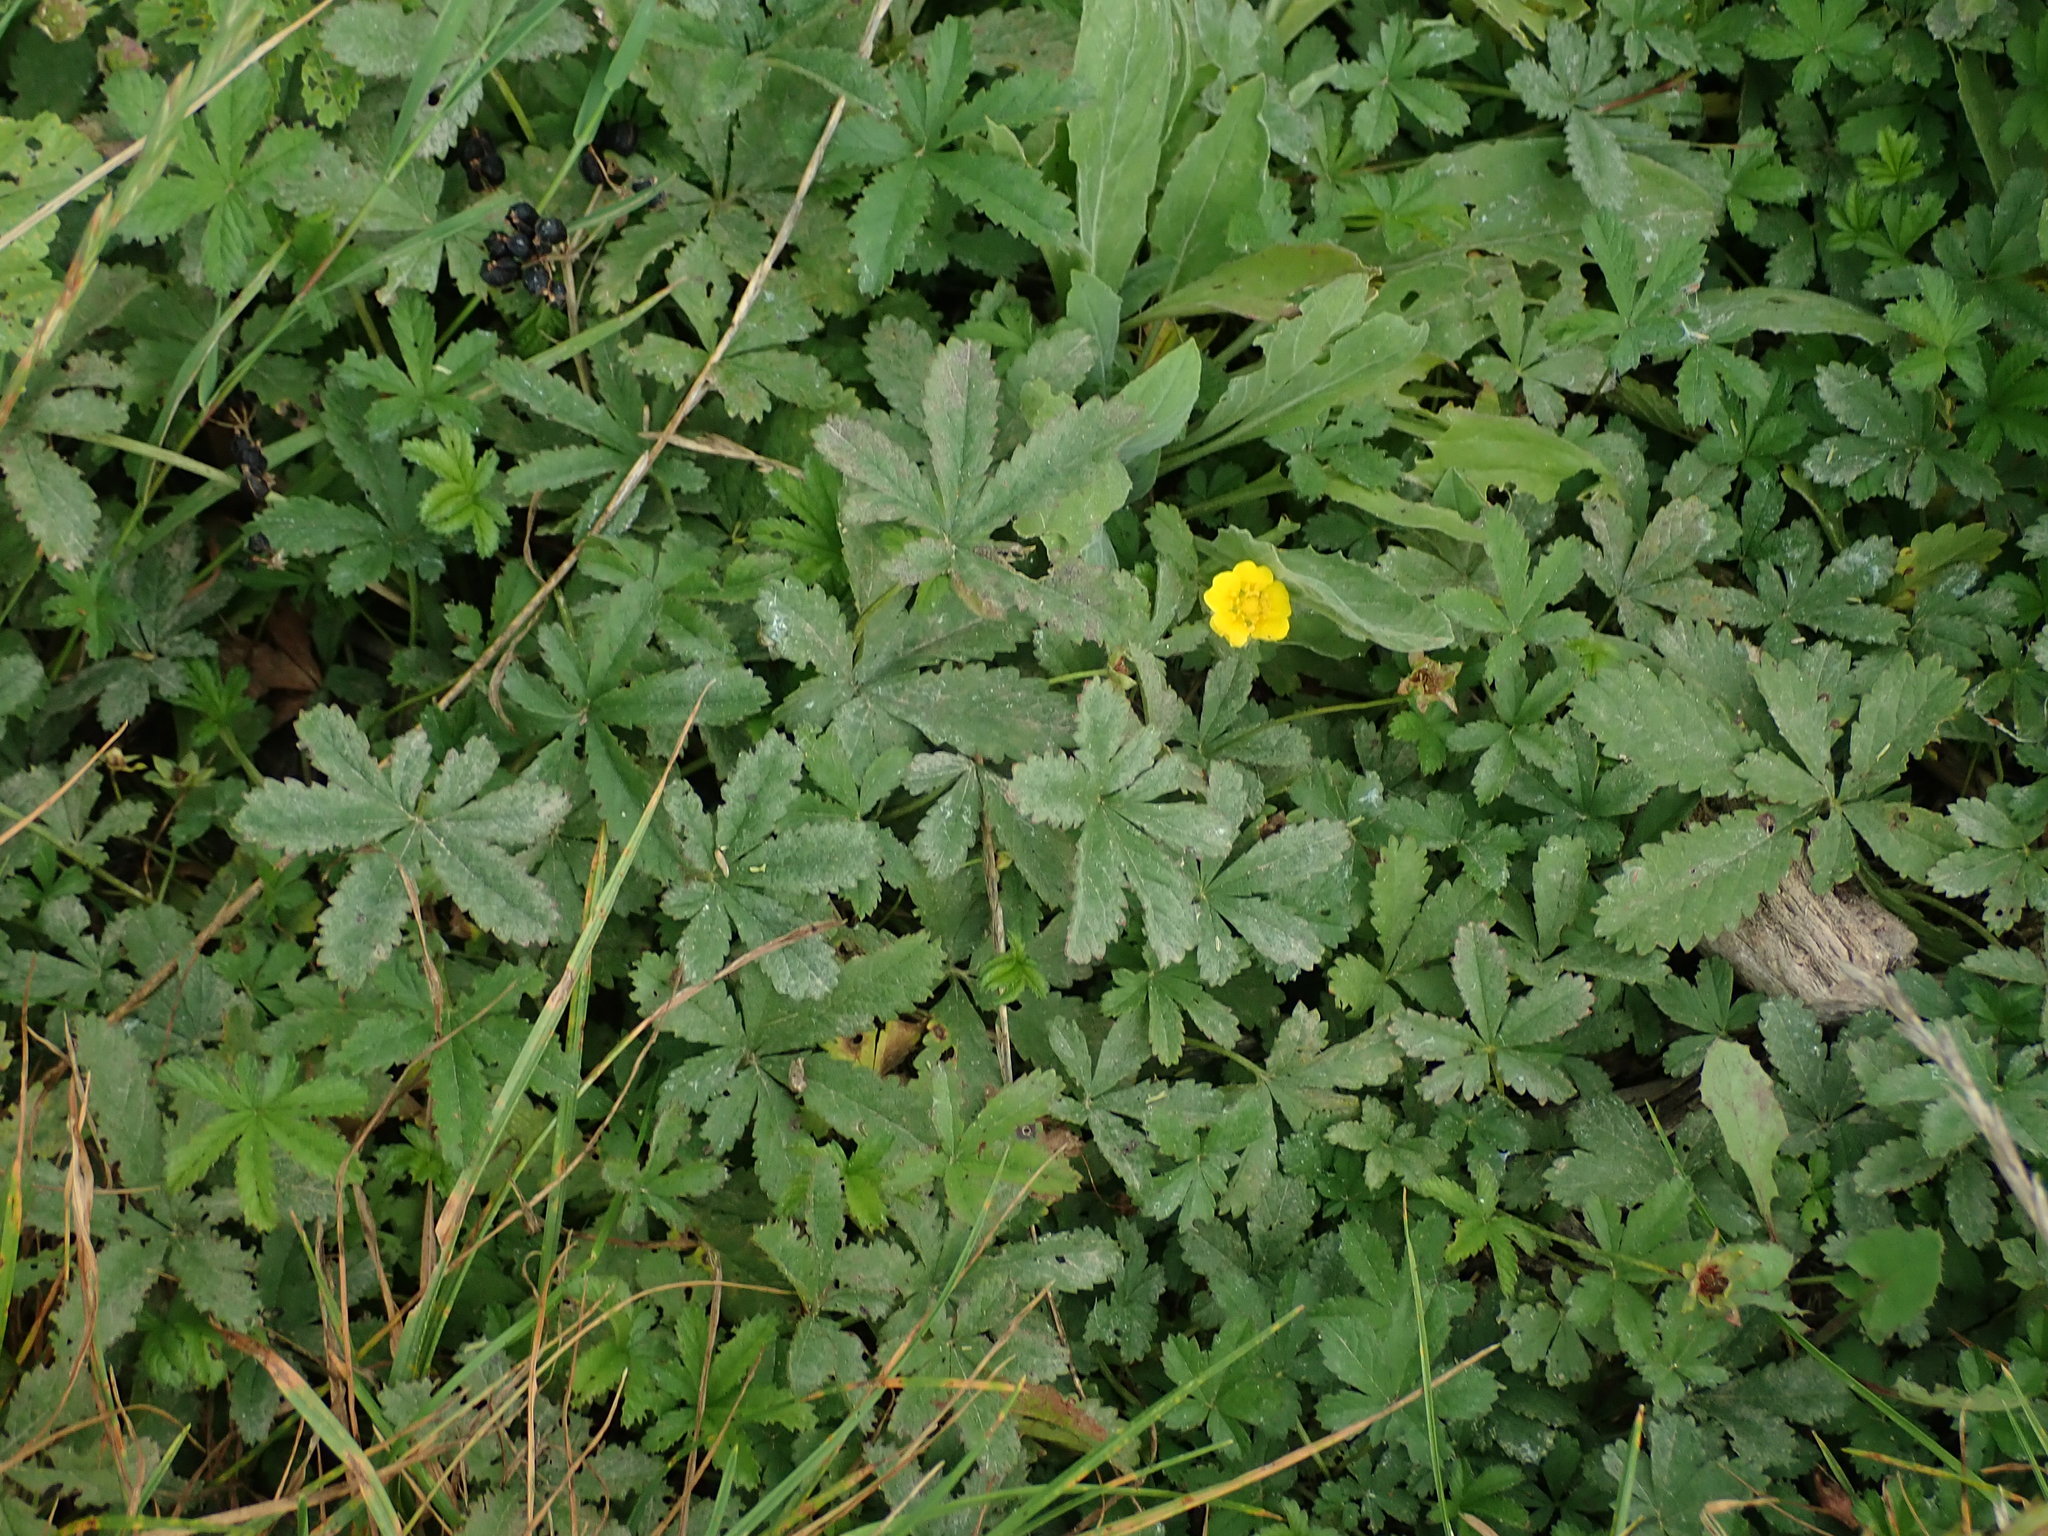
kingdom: Plantae
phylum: Tracheophyta
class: Magnoliopsida
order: Rosales
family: Rosaceae
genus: Potentilla
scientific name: Potentilla reptans
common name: Creeping cinquefoil
